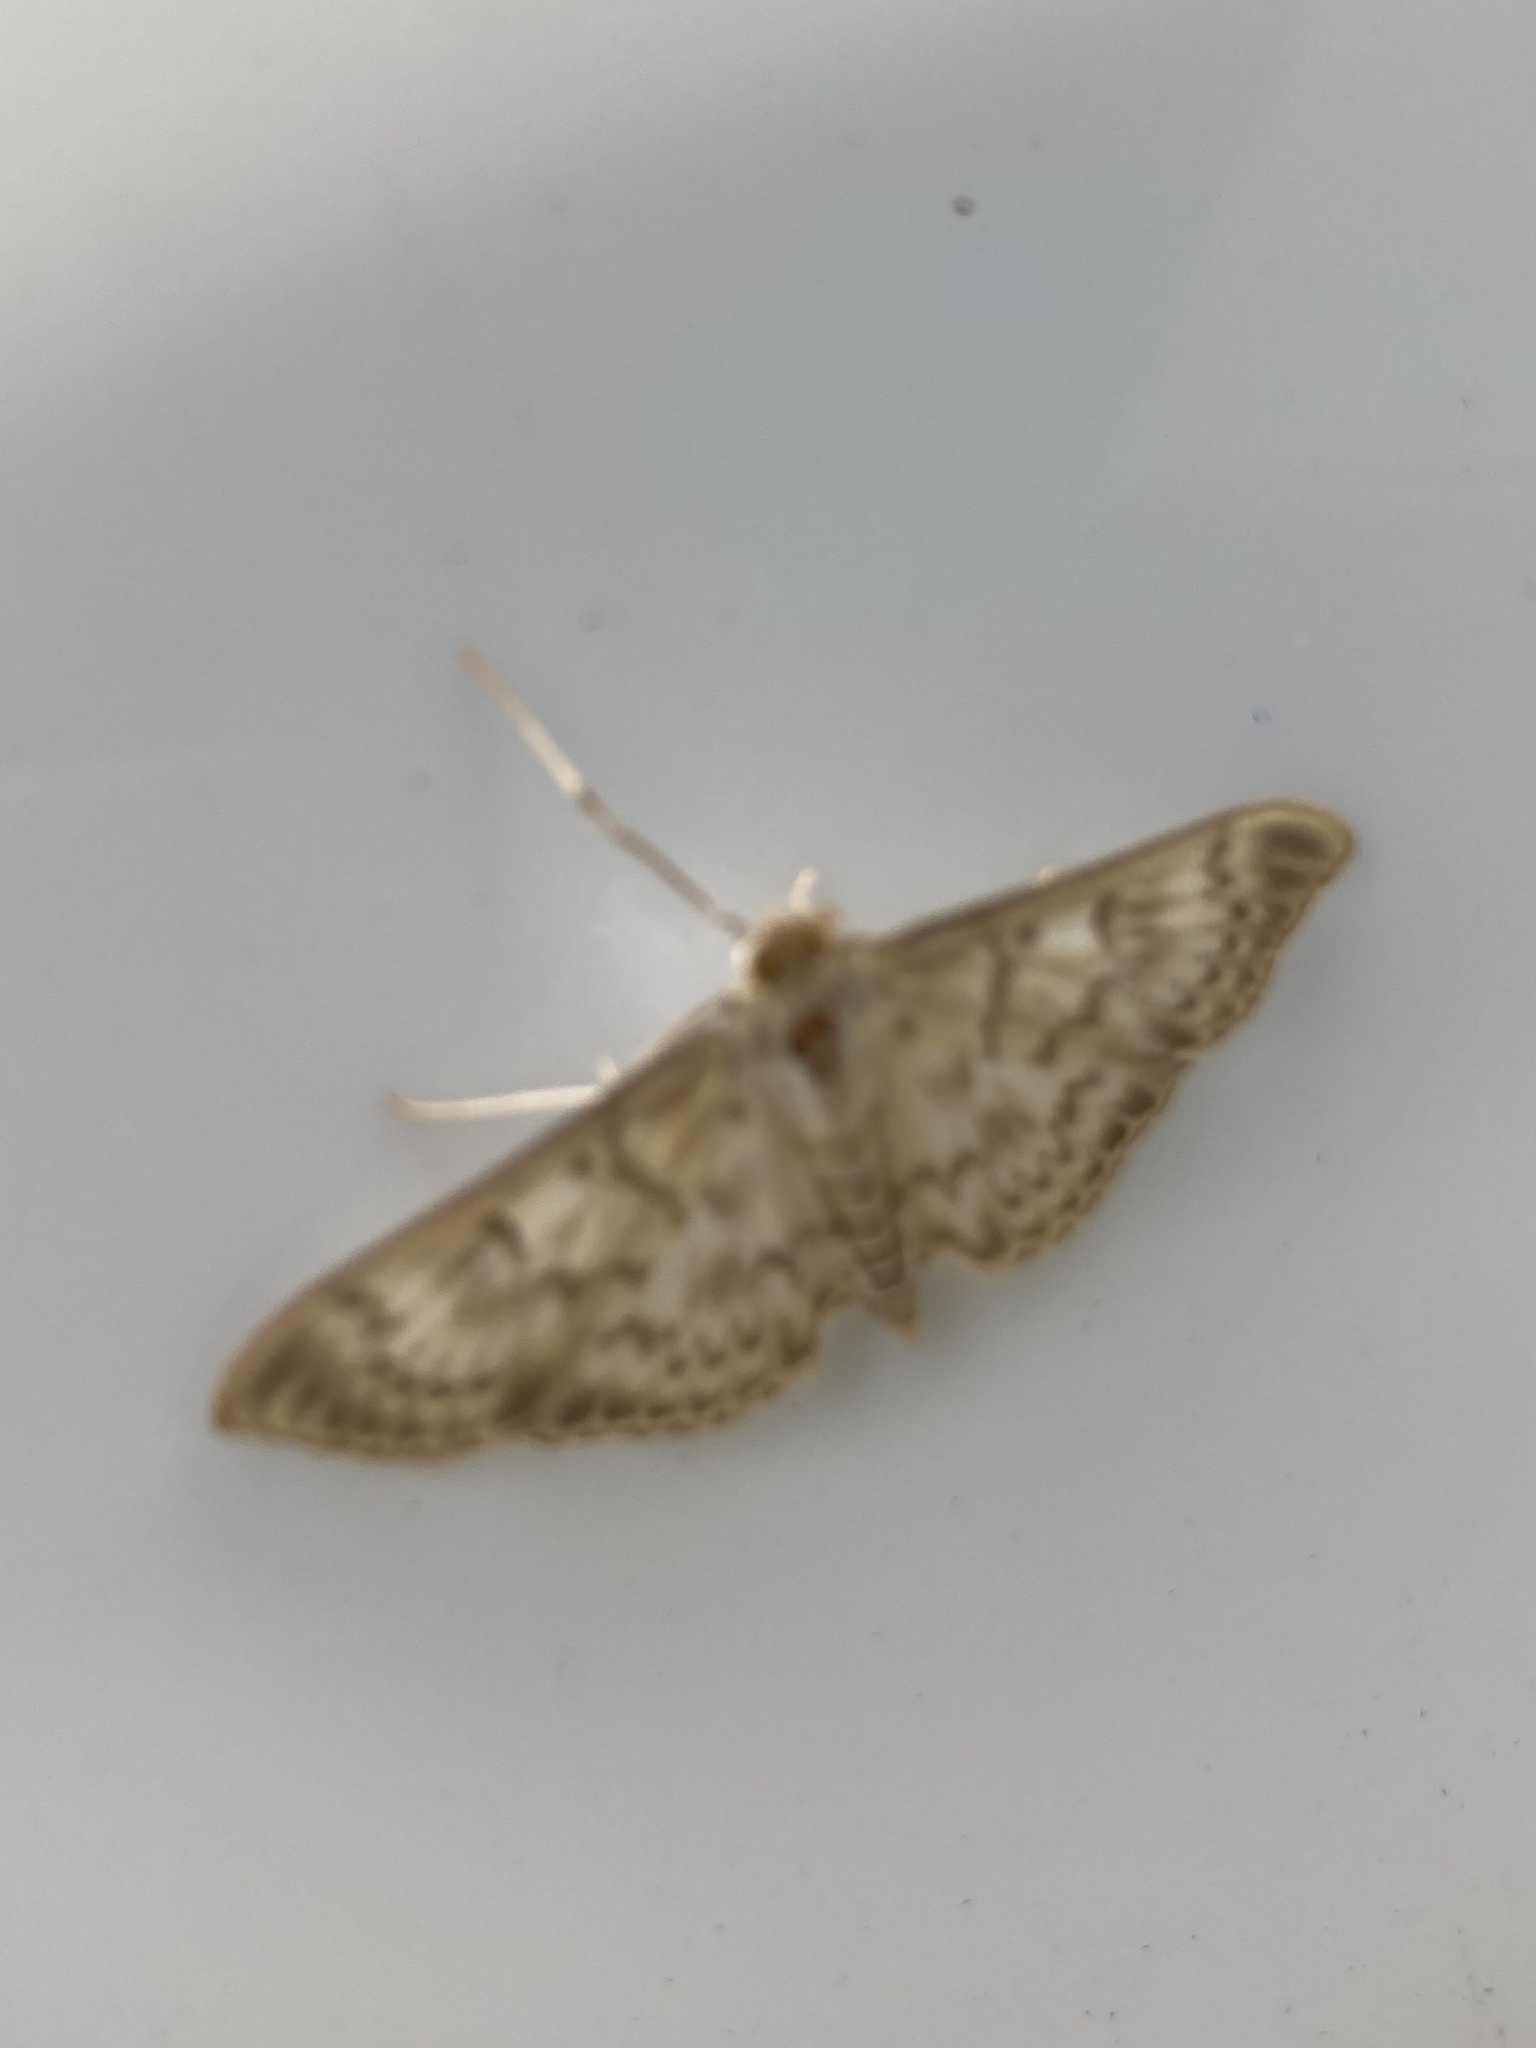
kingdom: Animalia
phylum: Arthropoda
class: Insecta
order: Lepidoptera
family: Crambidae
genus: Patania
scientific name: Patania ruralis
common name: Mother of pearl
